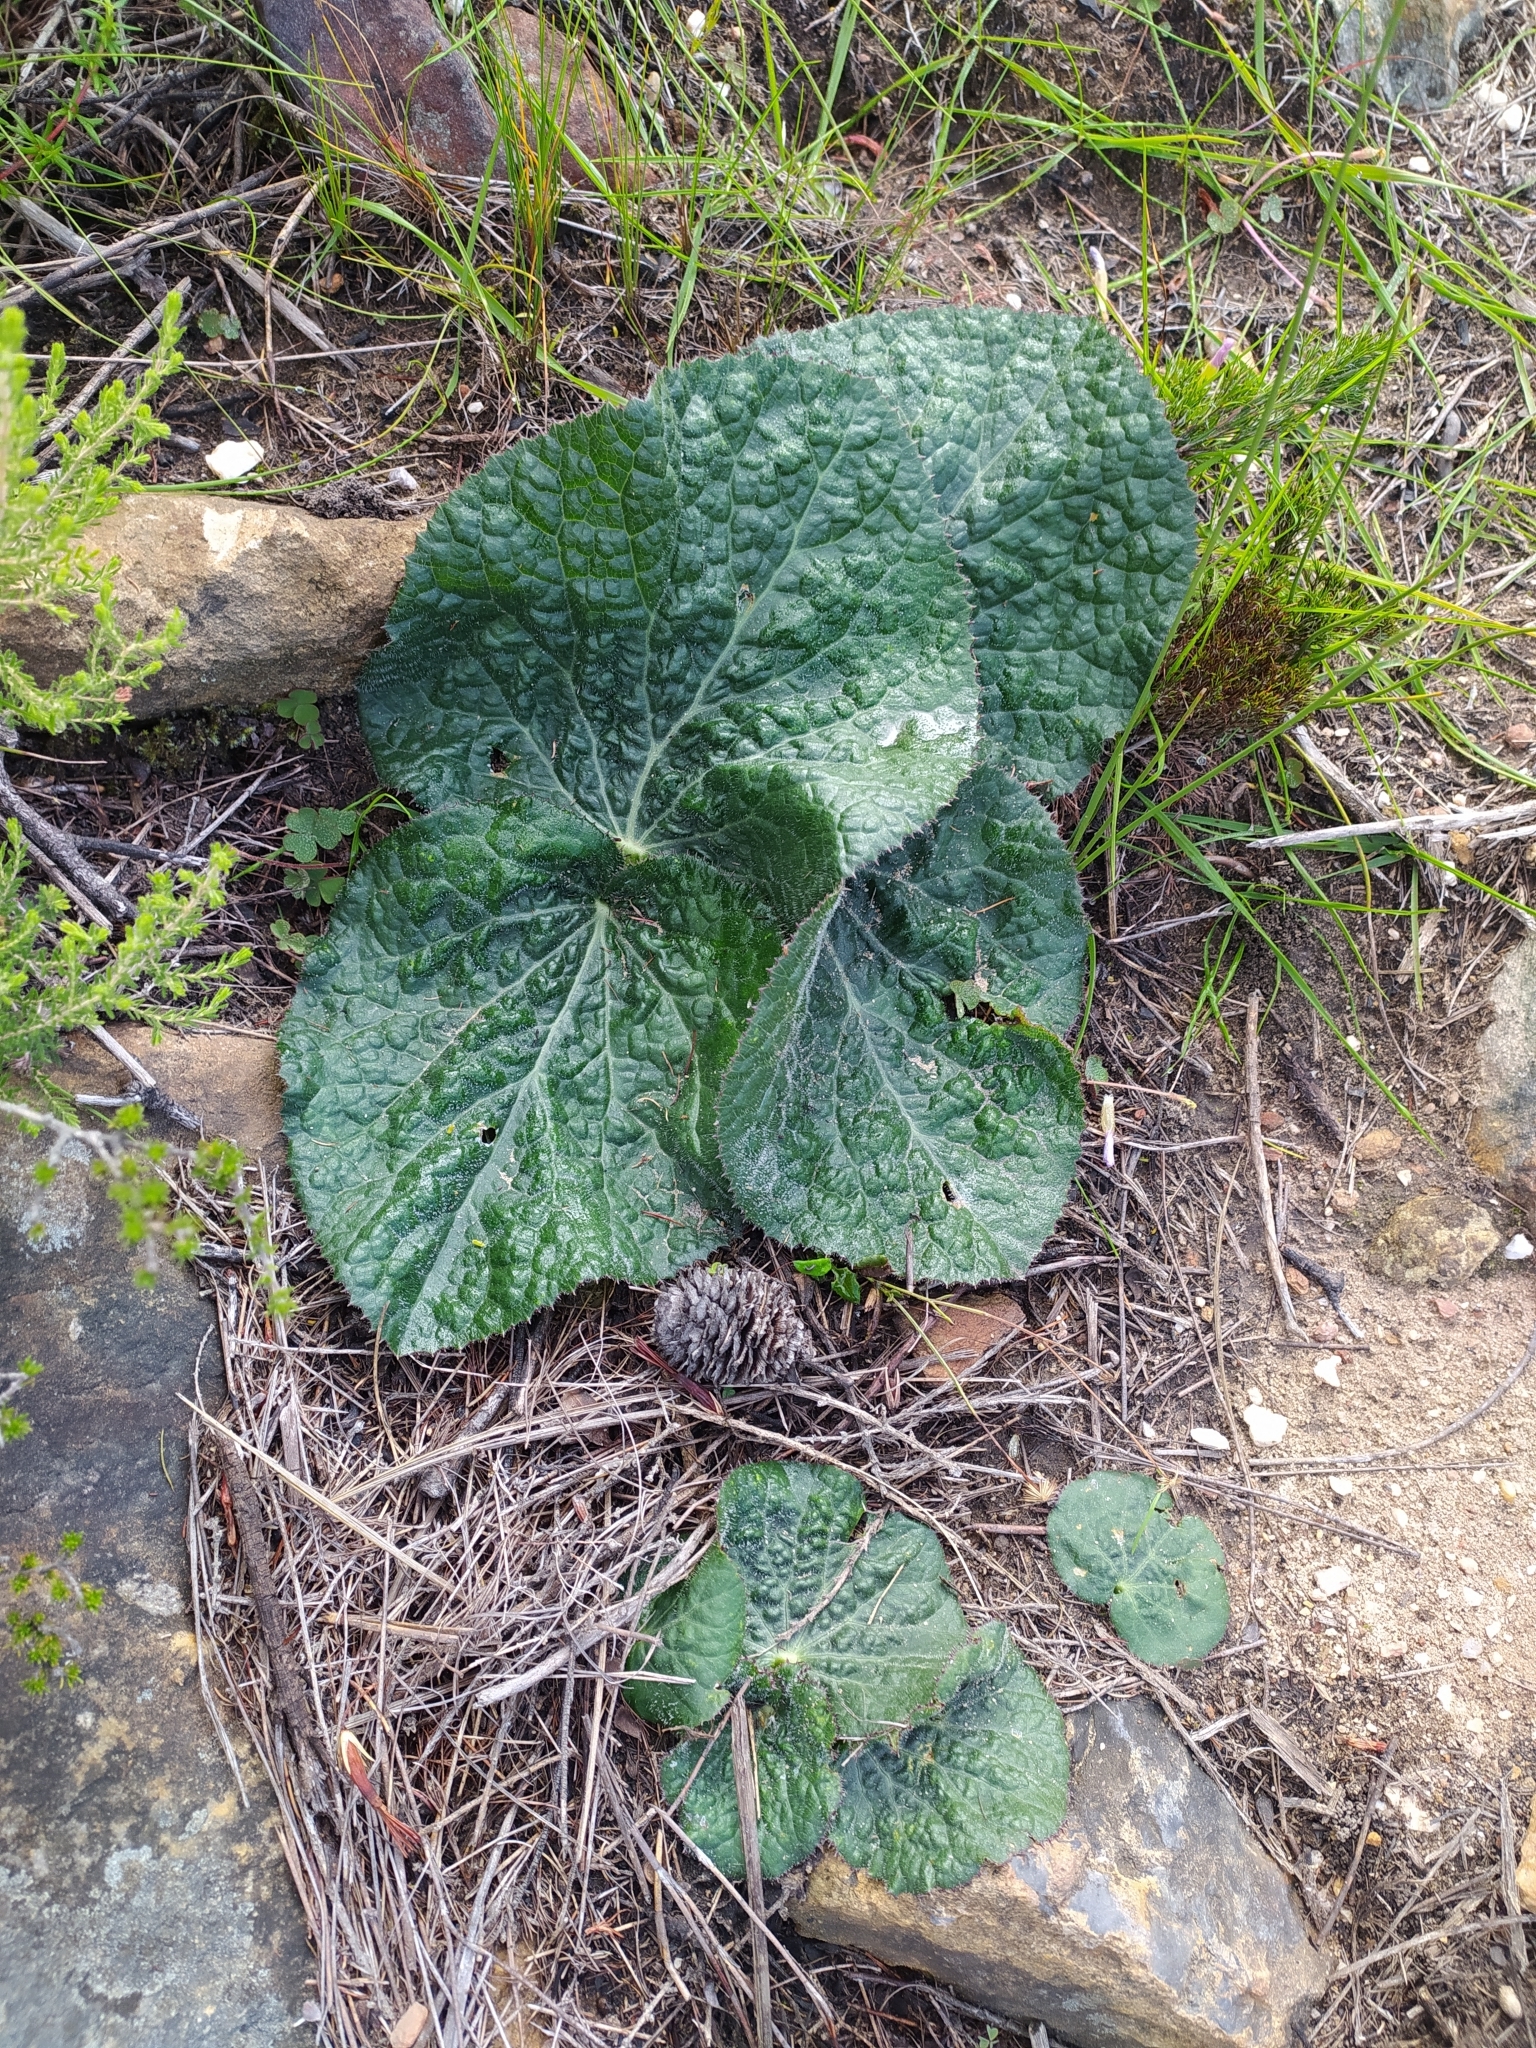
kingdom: Plantae
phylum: Tracheophyta
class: Magnoliopsida
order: Apiales
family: Apiaceae
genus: Lichtensteinia
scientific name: Lichtensteinia latifolia
